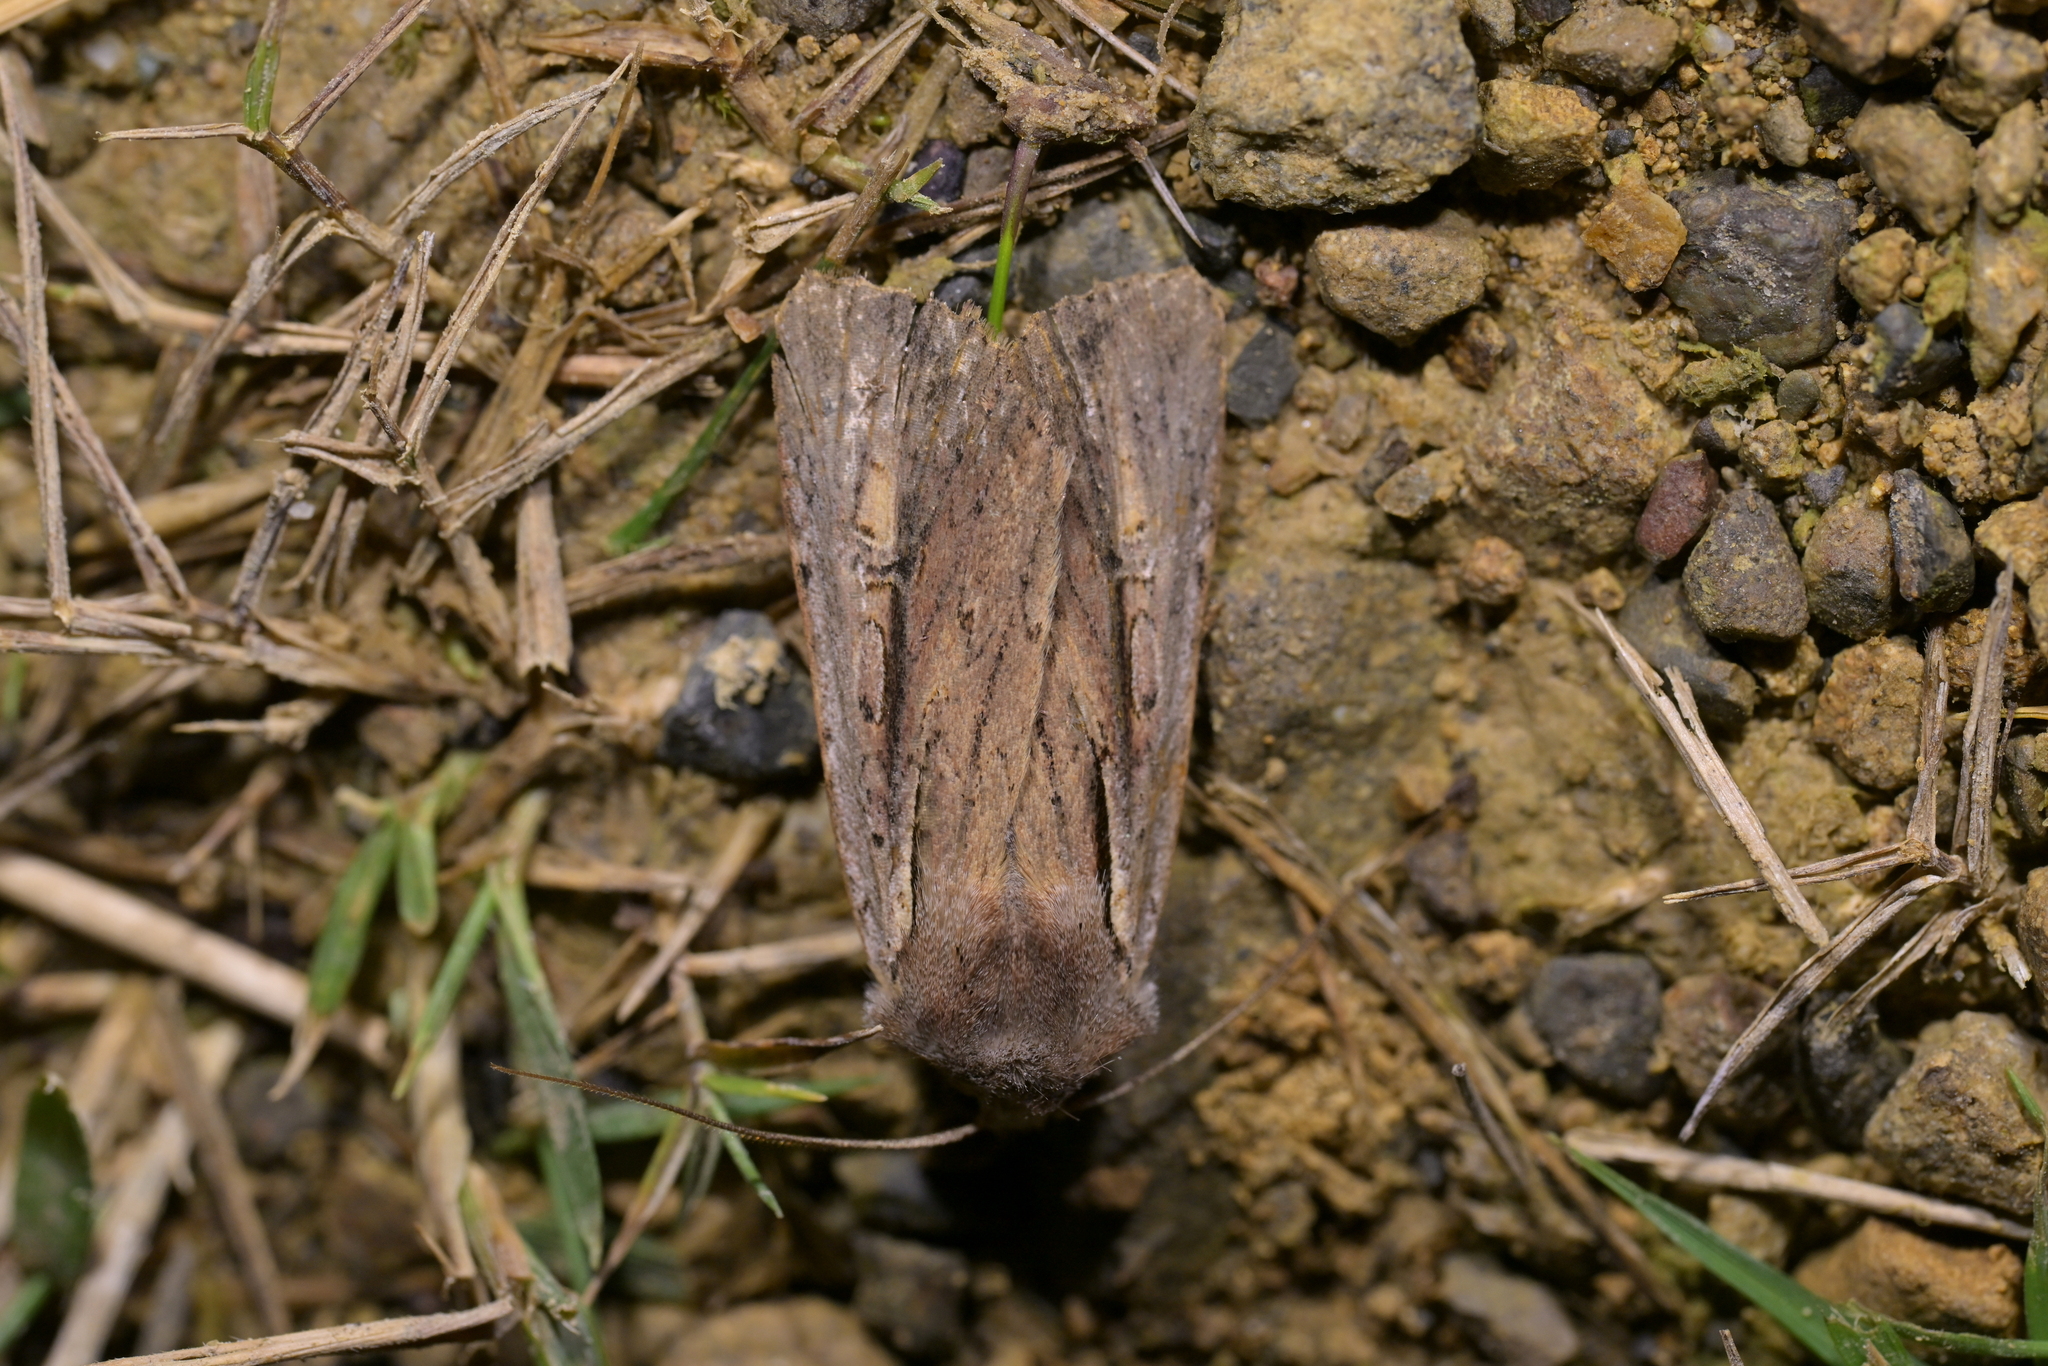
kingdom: Animalia
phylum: Arthropoda
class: Insecta
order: Lepidoptera
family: Noctuidae
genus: Ichneutica
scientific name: Ichneutica atristriga
